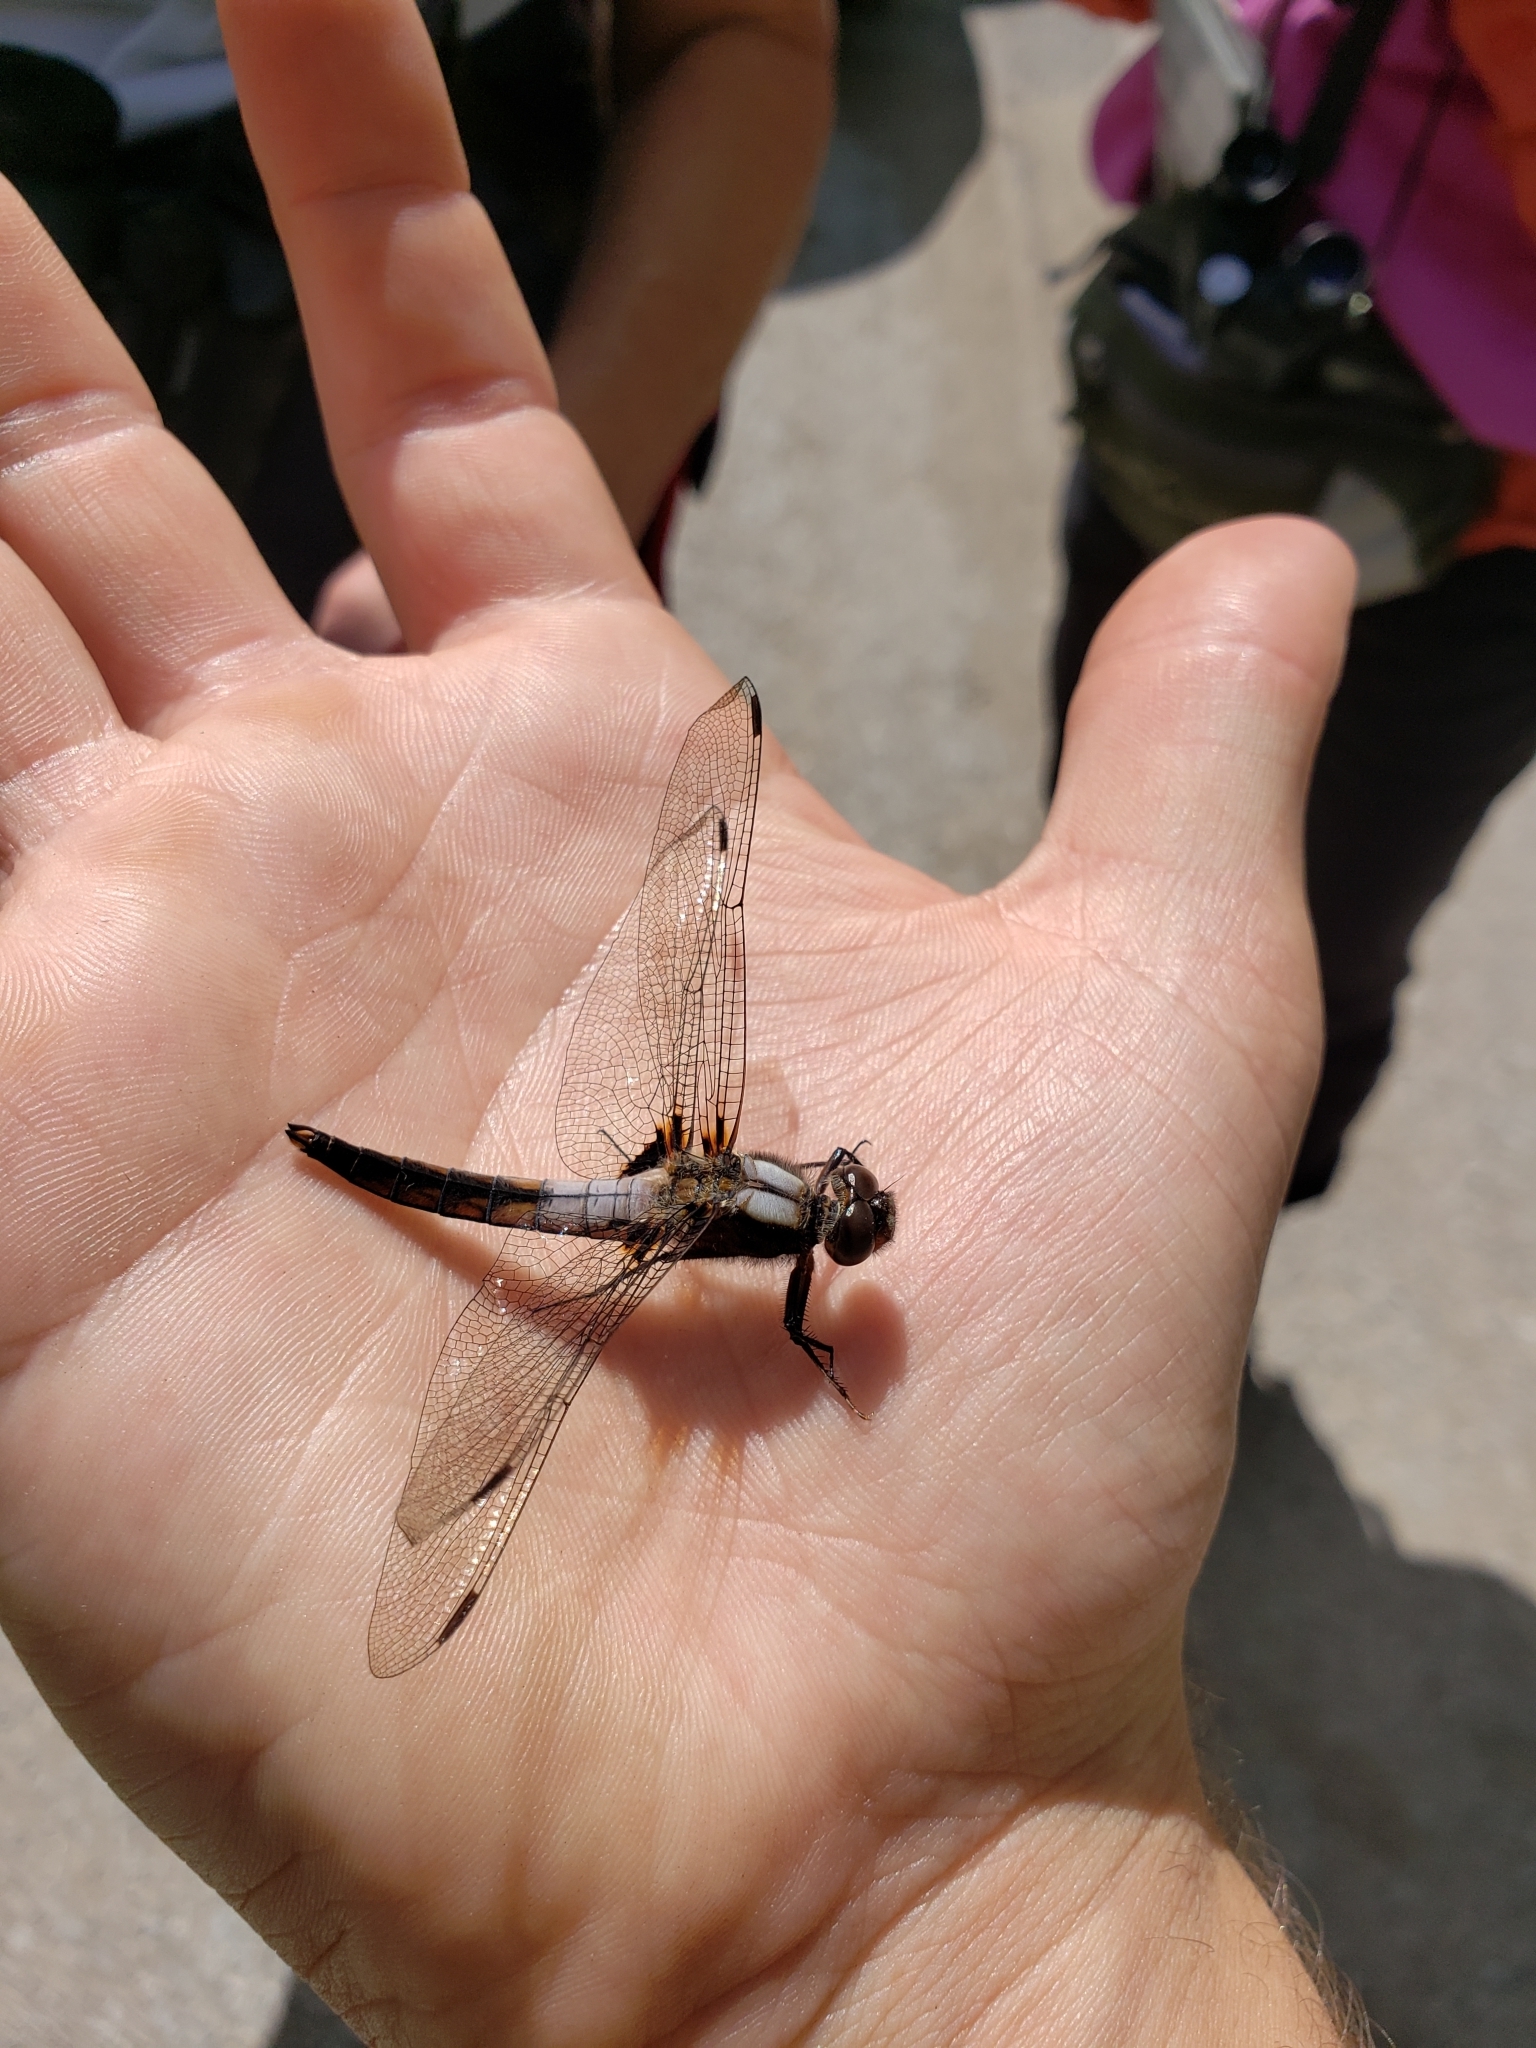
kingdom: Animalia
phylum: Arthropoda
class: Insecta
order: Odonata
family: Libellulidae
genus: Ladona
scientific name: Ladona julia
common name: Chalk-fronted corporal
